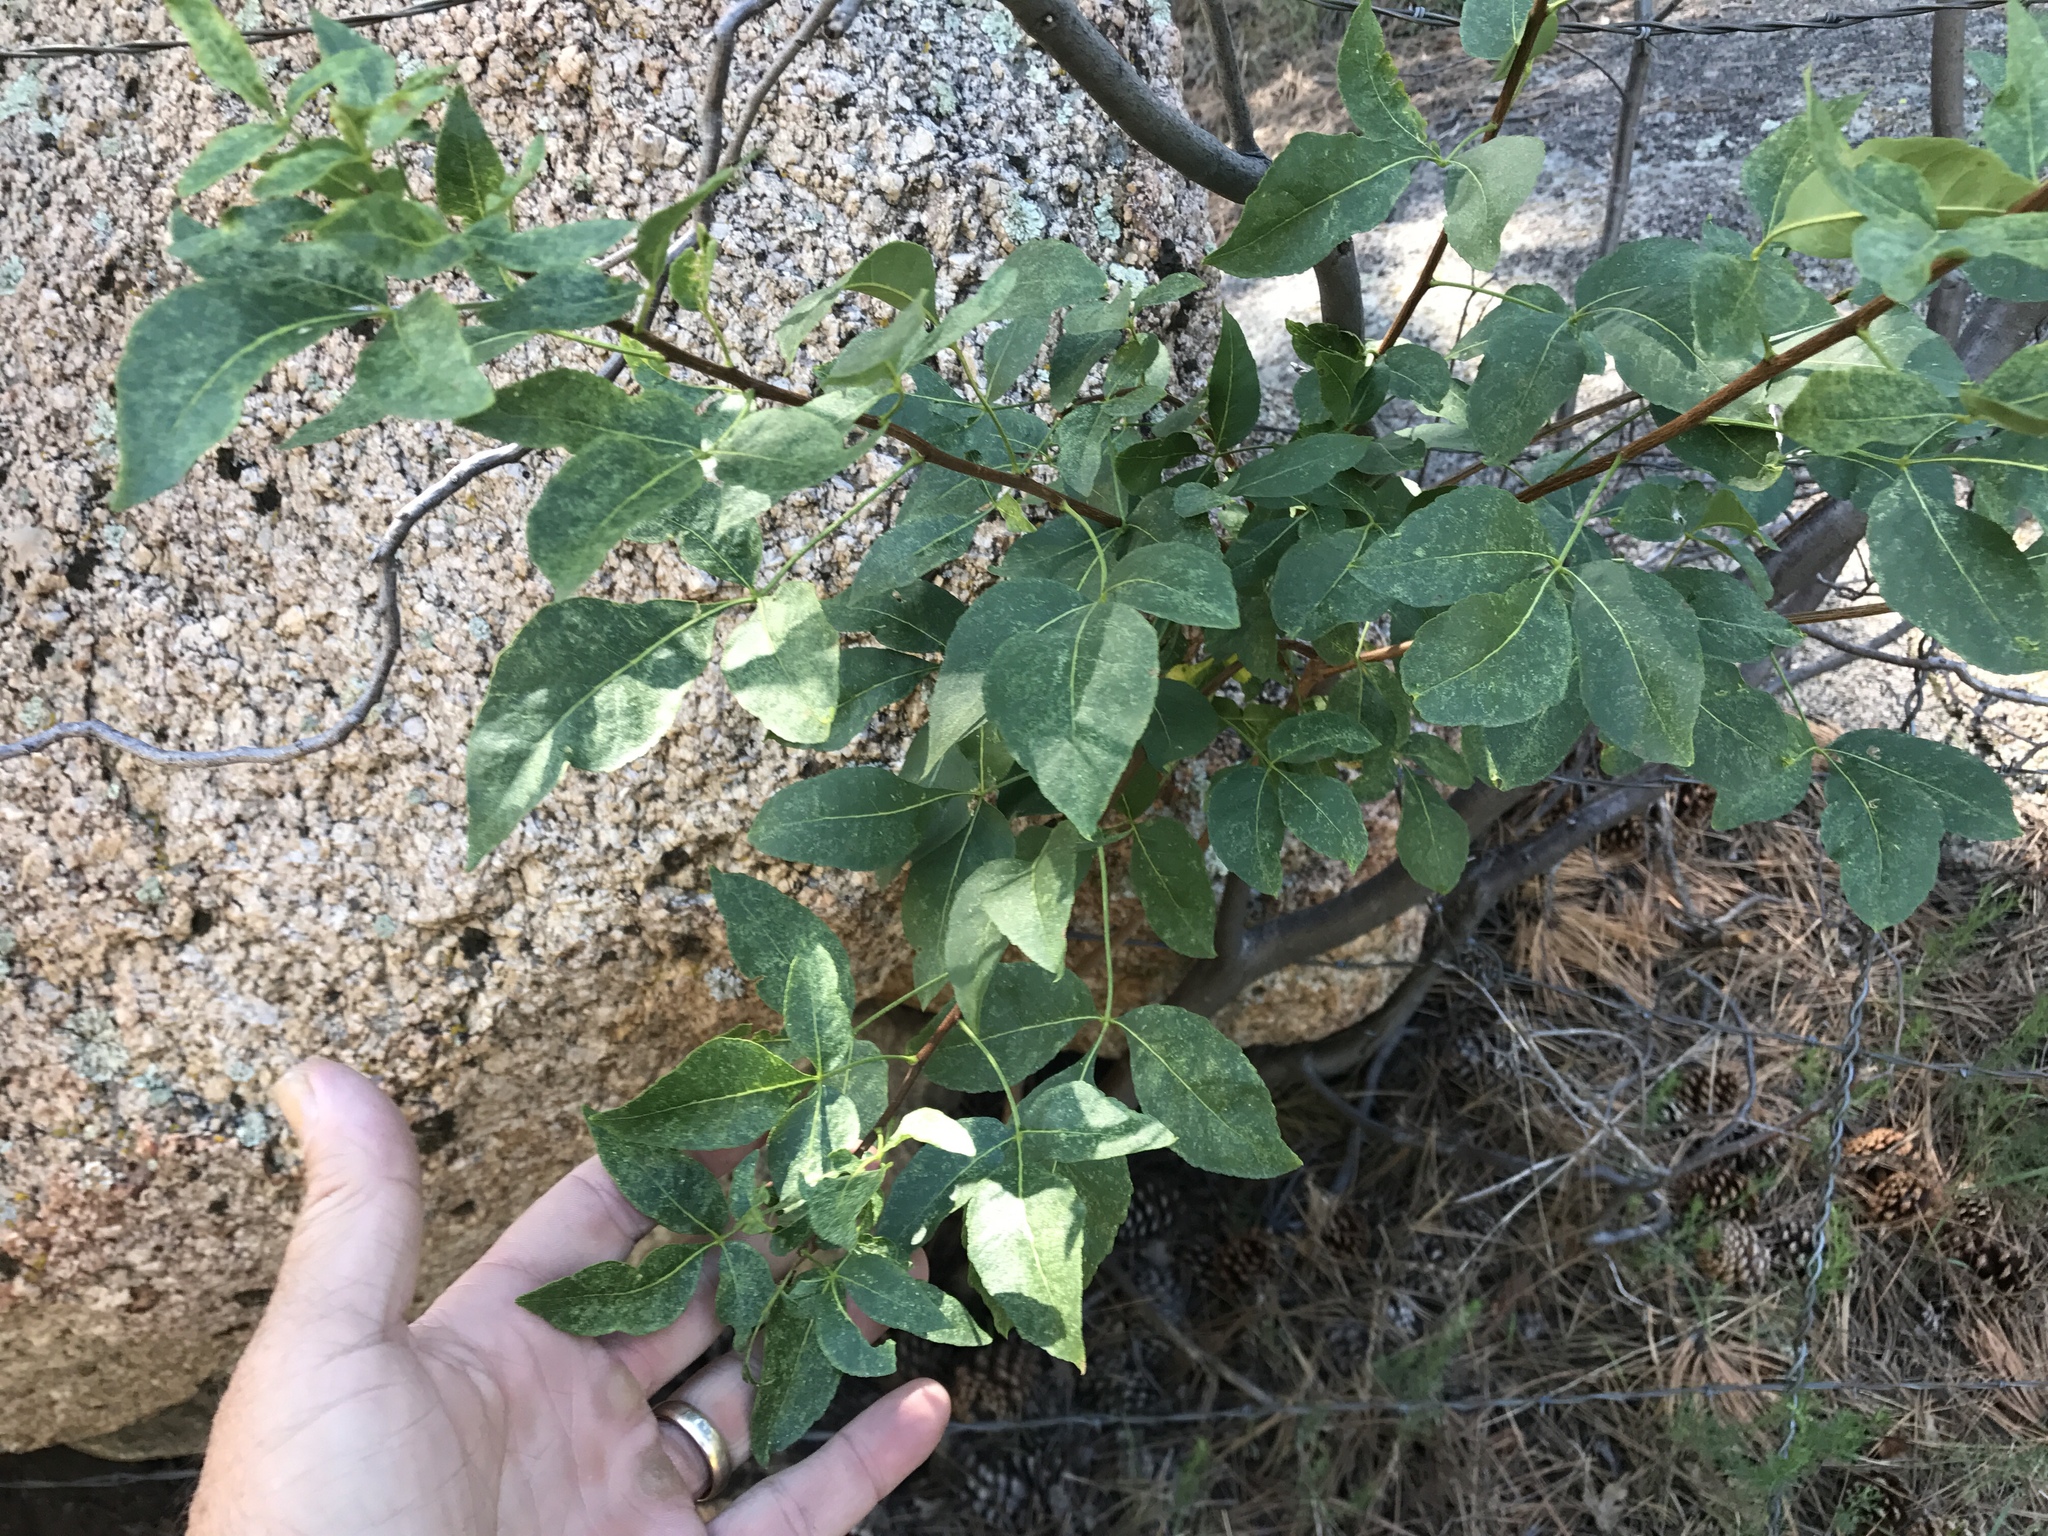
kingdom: Plantae
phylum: Tracheophyta
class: Magnoliopsida
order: Sapindales
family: Rutaceae
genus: Ptelea
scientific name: Ptelea trifoliata
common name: Common hop-tree
